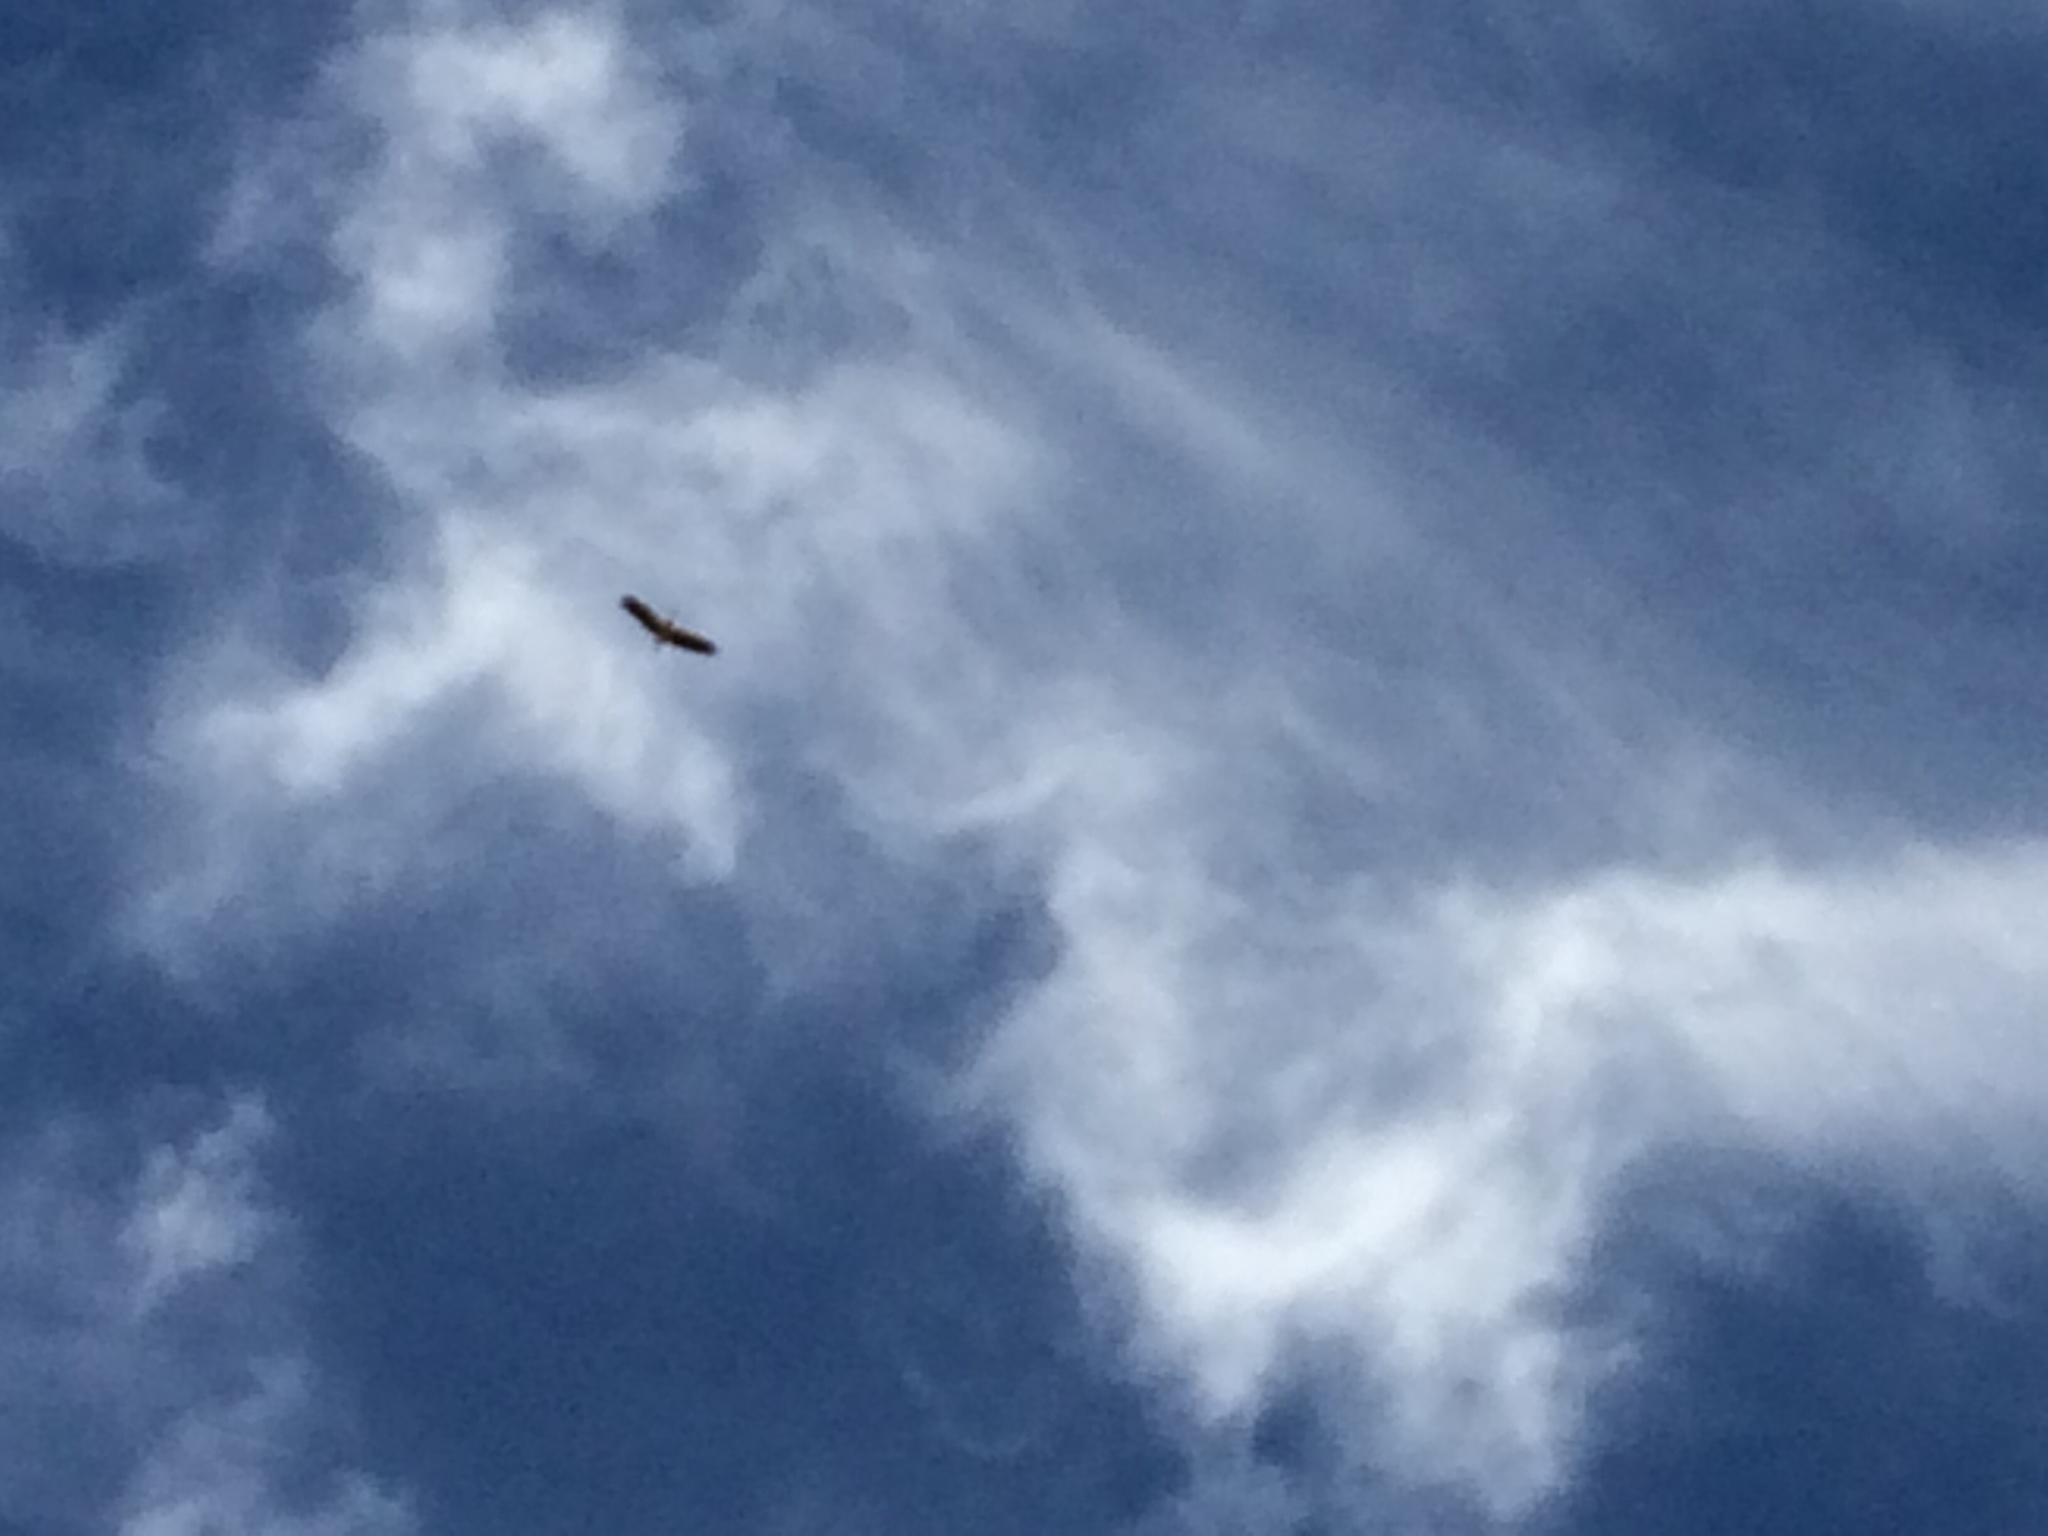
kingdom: Animalia
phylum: Chordata
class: Aves
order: Ciconiiformes
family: Ciconiidae
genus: Ciconia
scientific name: Ciconia ciconia
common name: White stork
